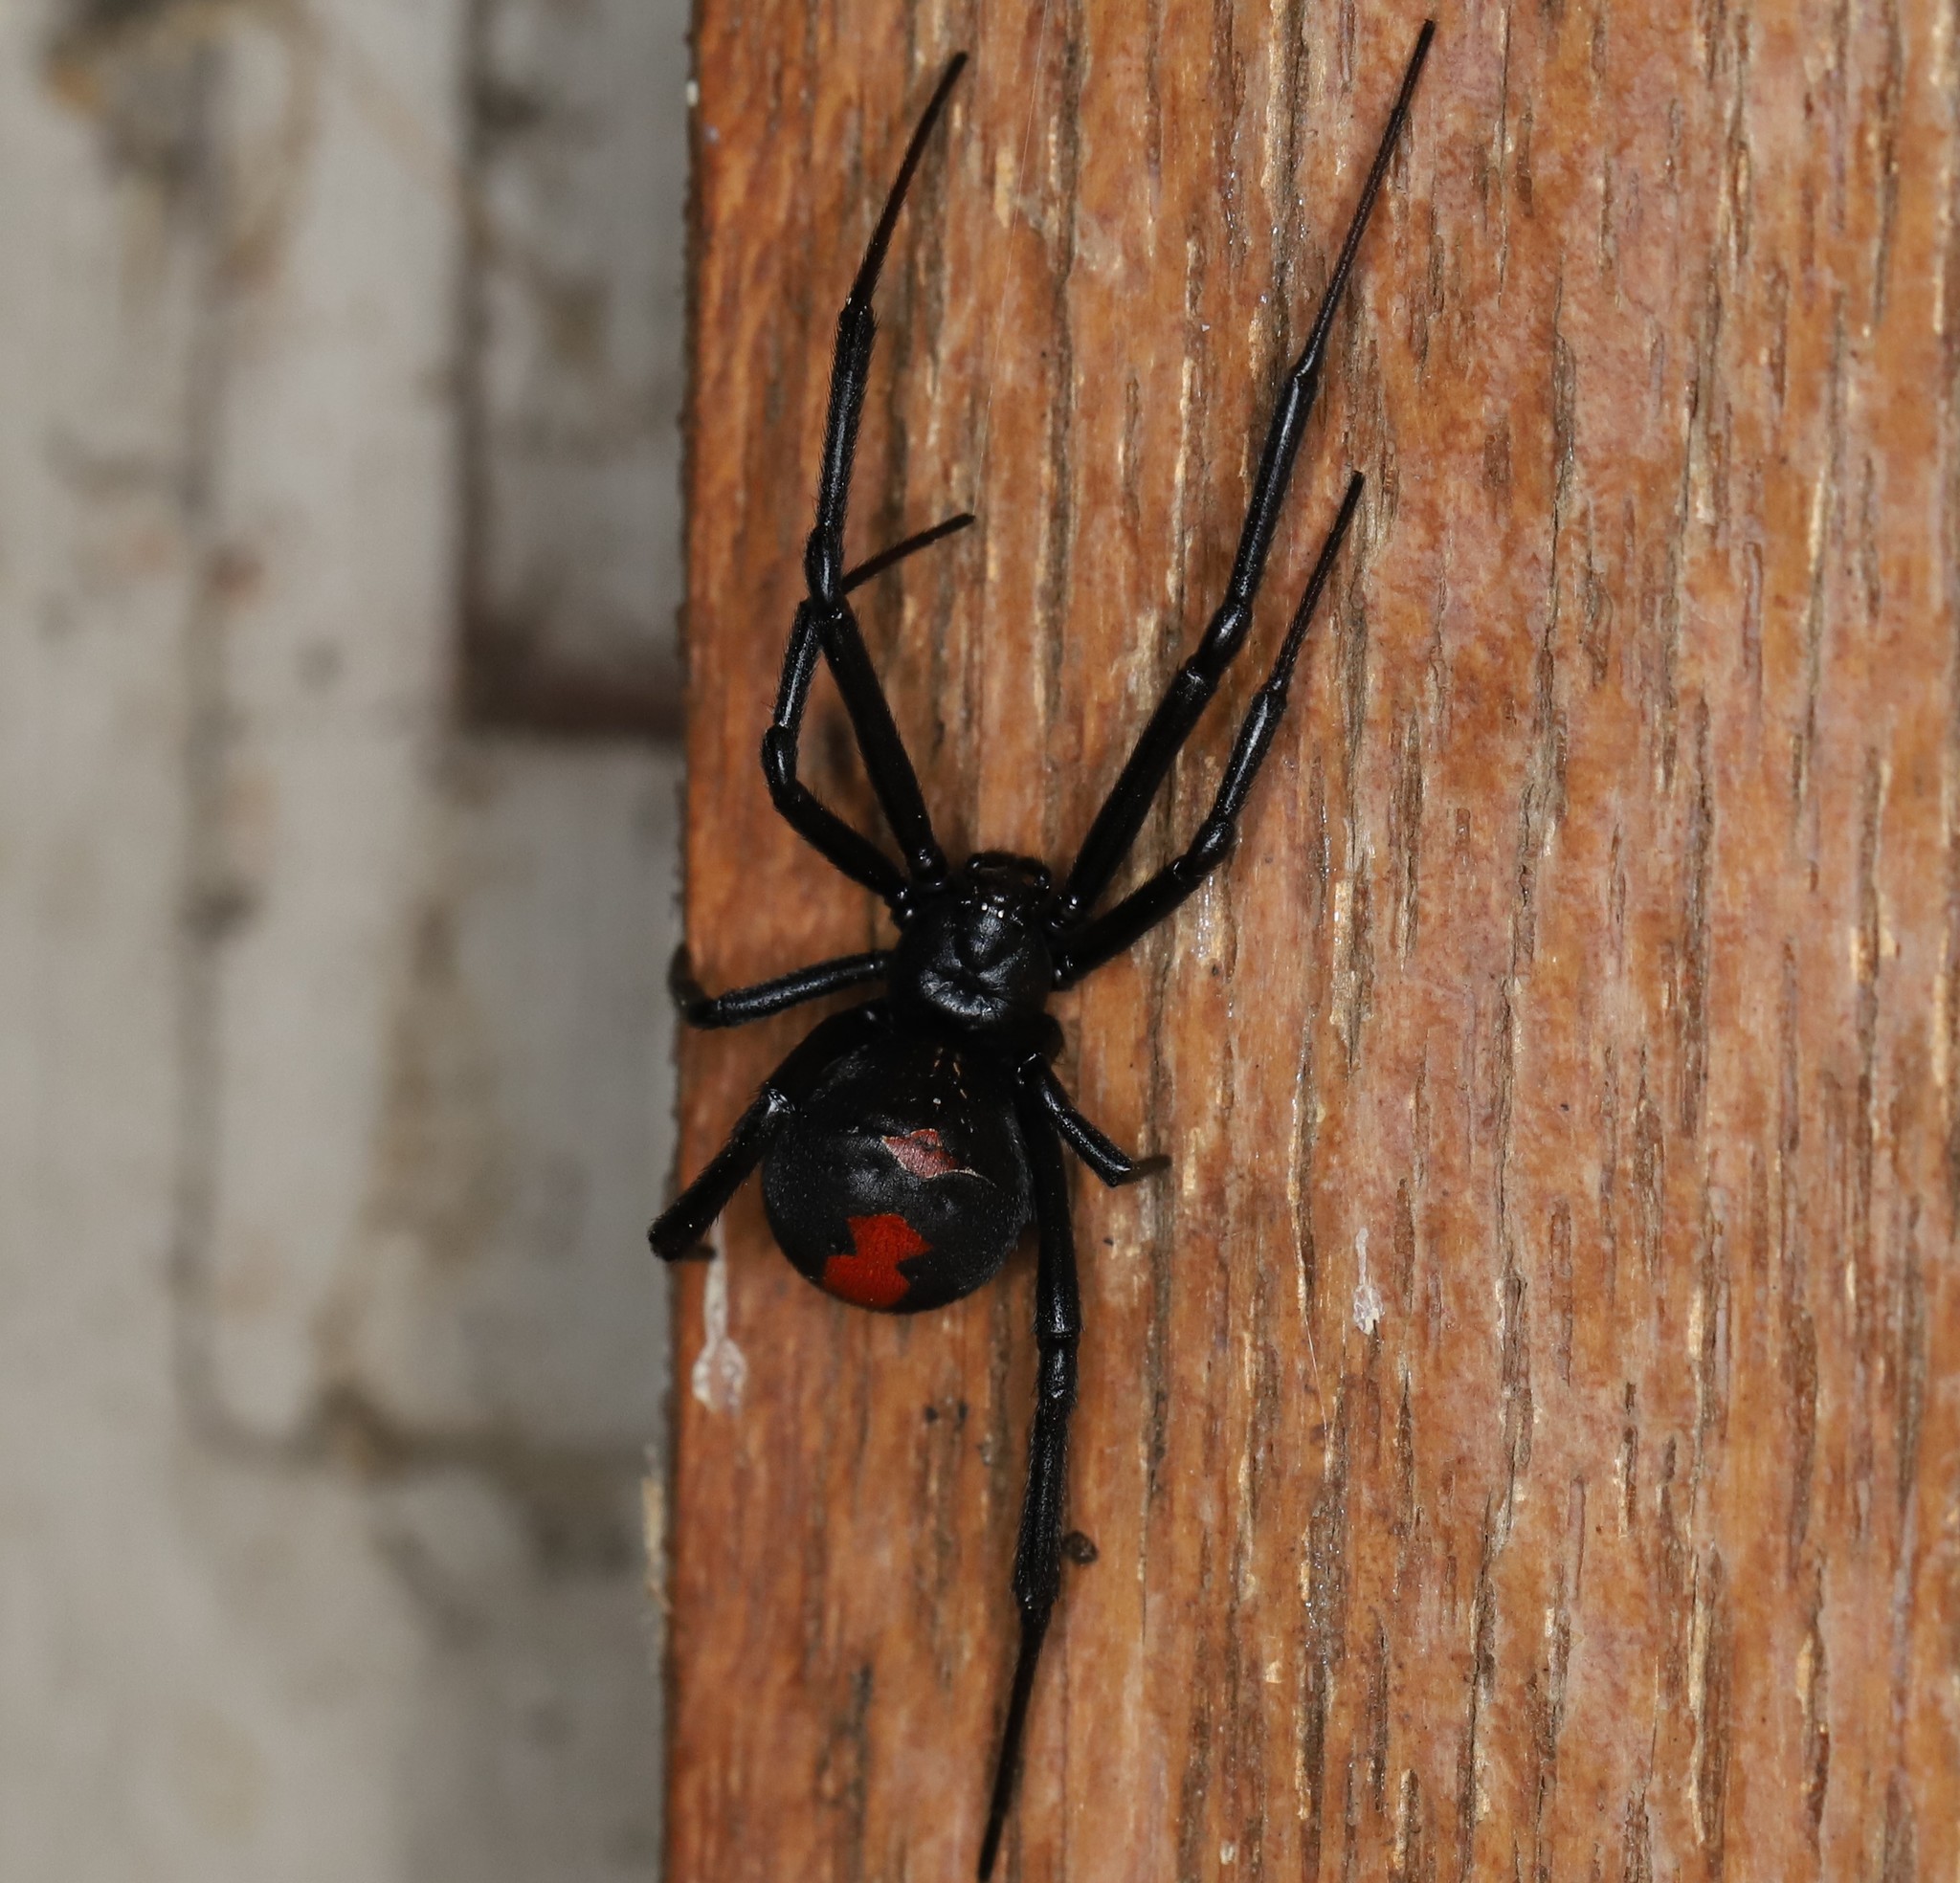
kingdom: Animalia
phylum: Arthropoda
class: Arachnida
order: Araneae
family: Theridiidae
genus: Latrodectus
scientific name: Latrodectus hasselti
